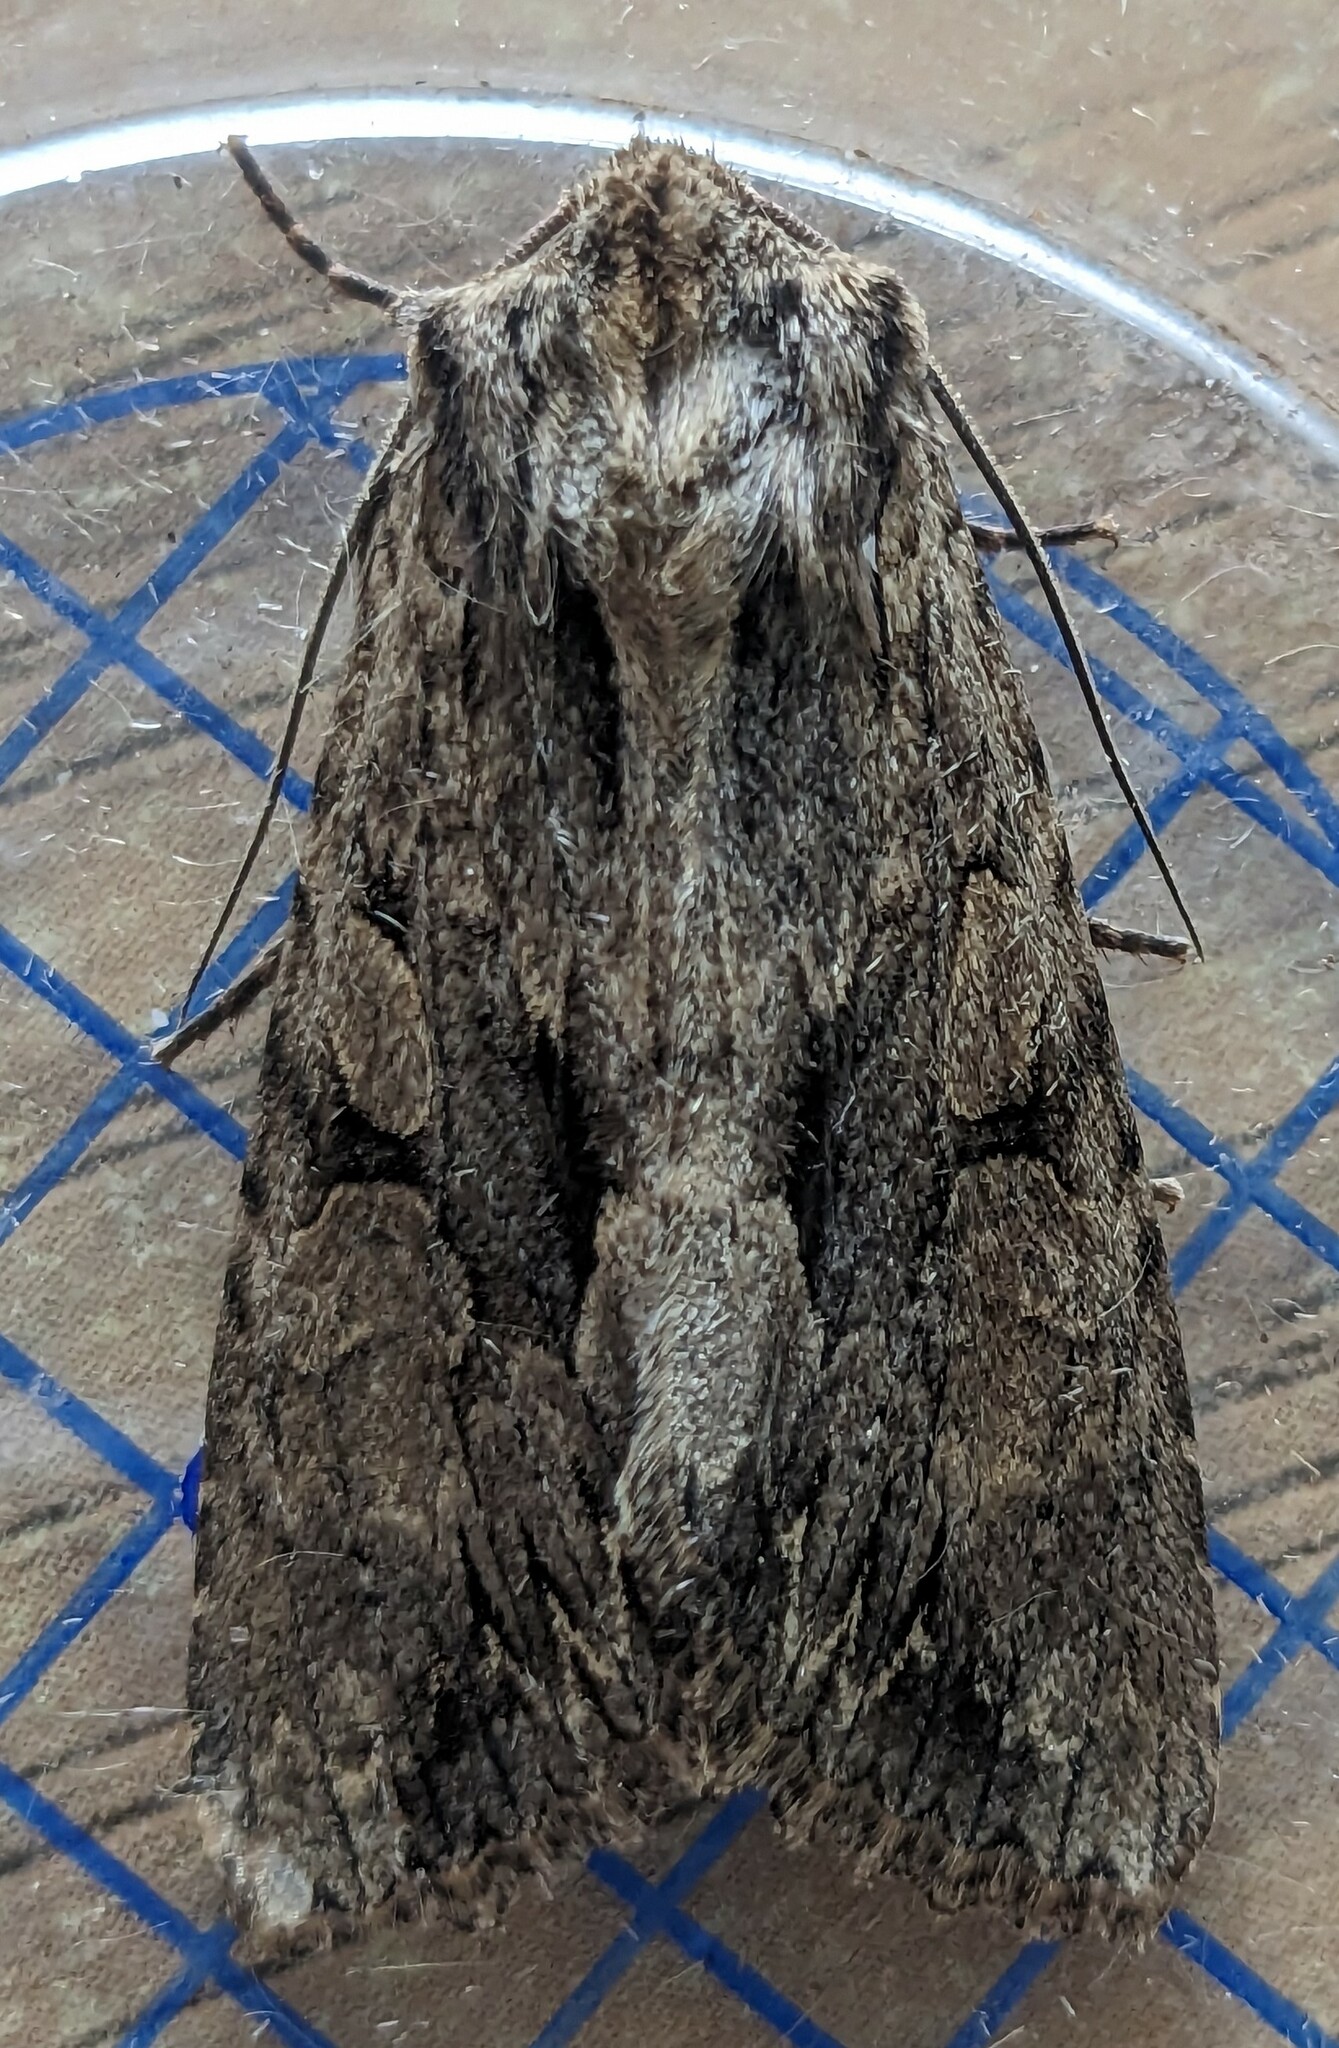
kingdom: Animalia
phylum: Arthropoda
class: Insecta
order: Lepidoptera
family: Noctuidae
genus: Apamea
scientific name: Apamea monoglypha
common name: Dark arches
